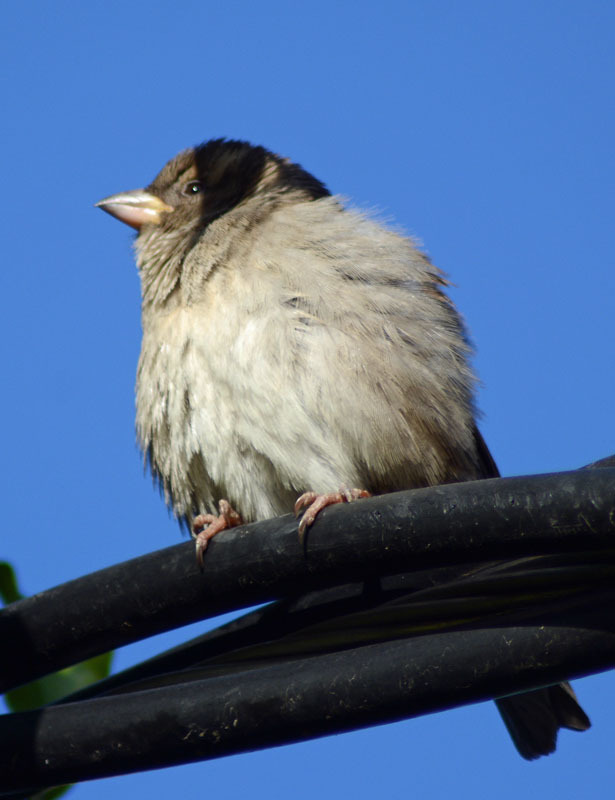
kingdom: Animalia
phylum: Chordata
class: Aves
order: Passeriformes
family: Passeridae
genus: Passer
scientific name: Passer domesticus
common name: House sparrow
